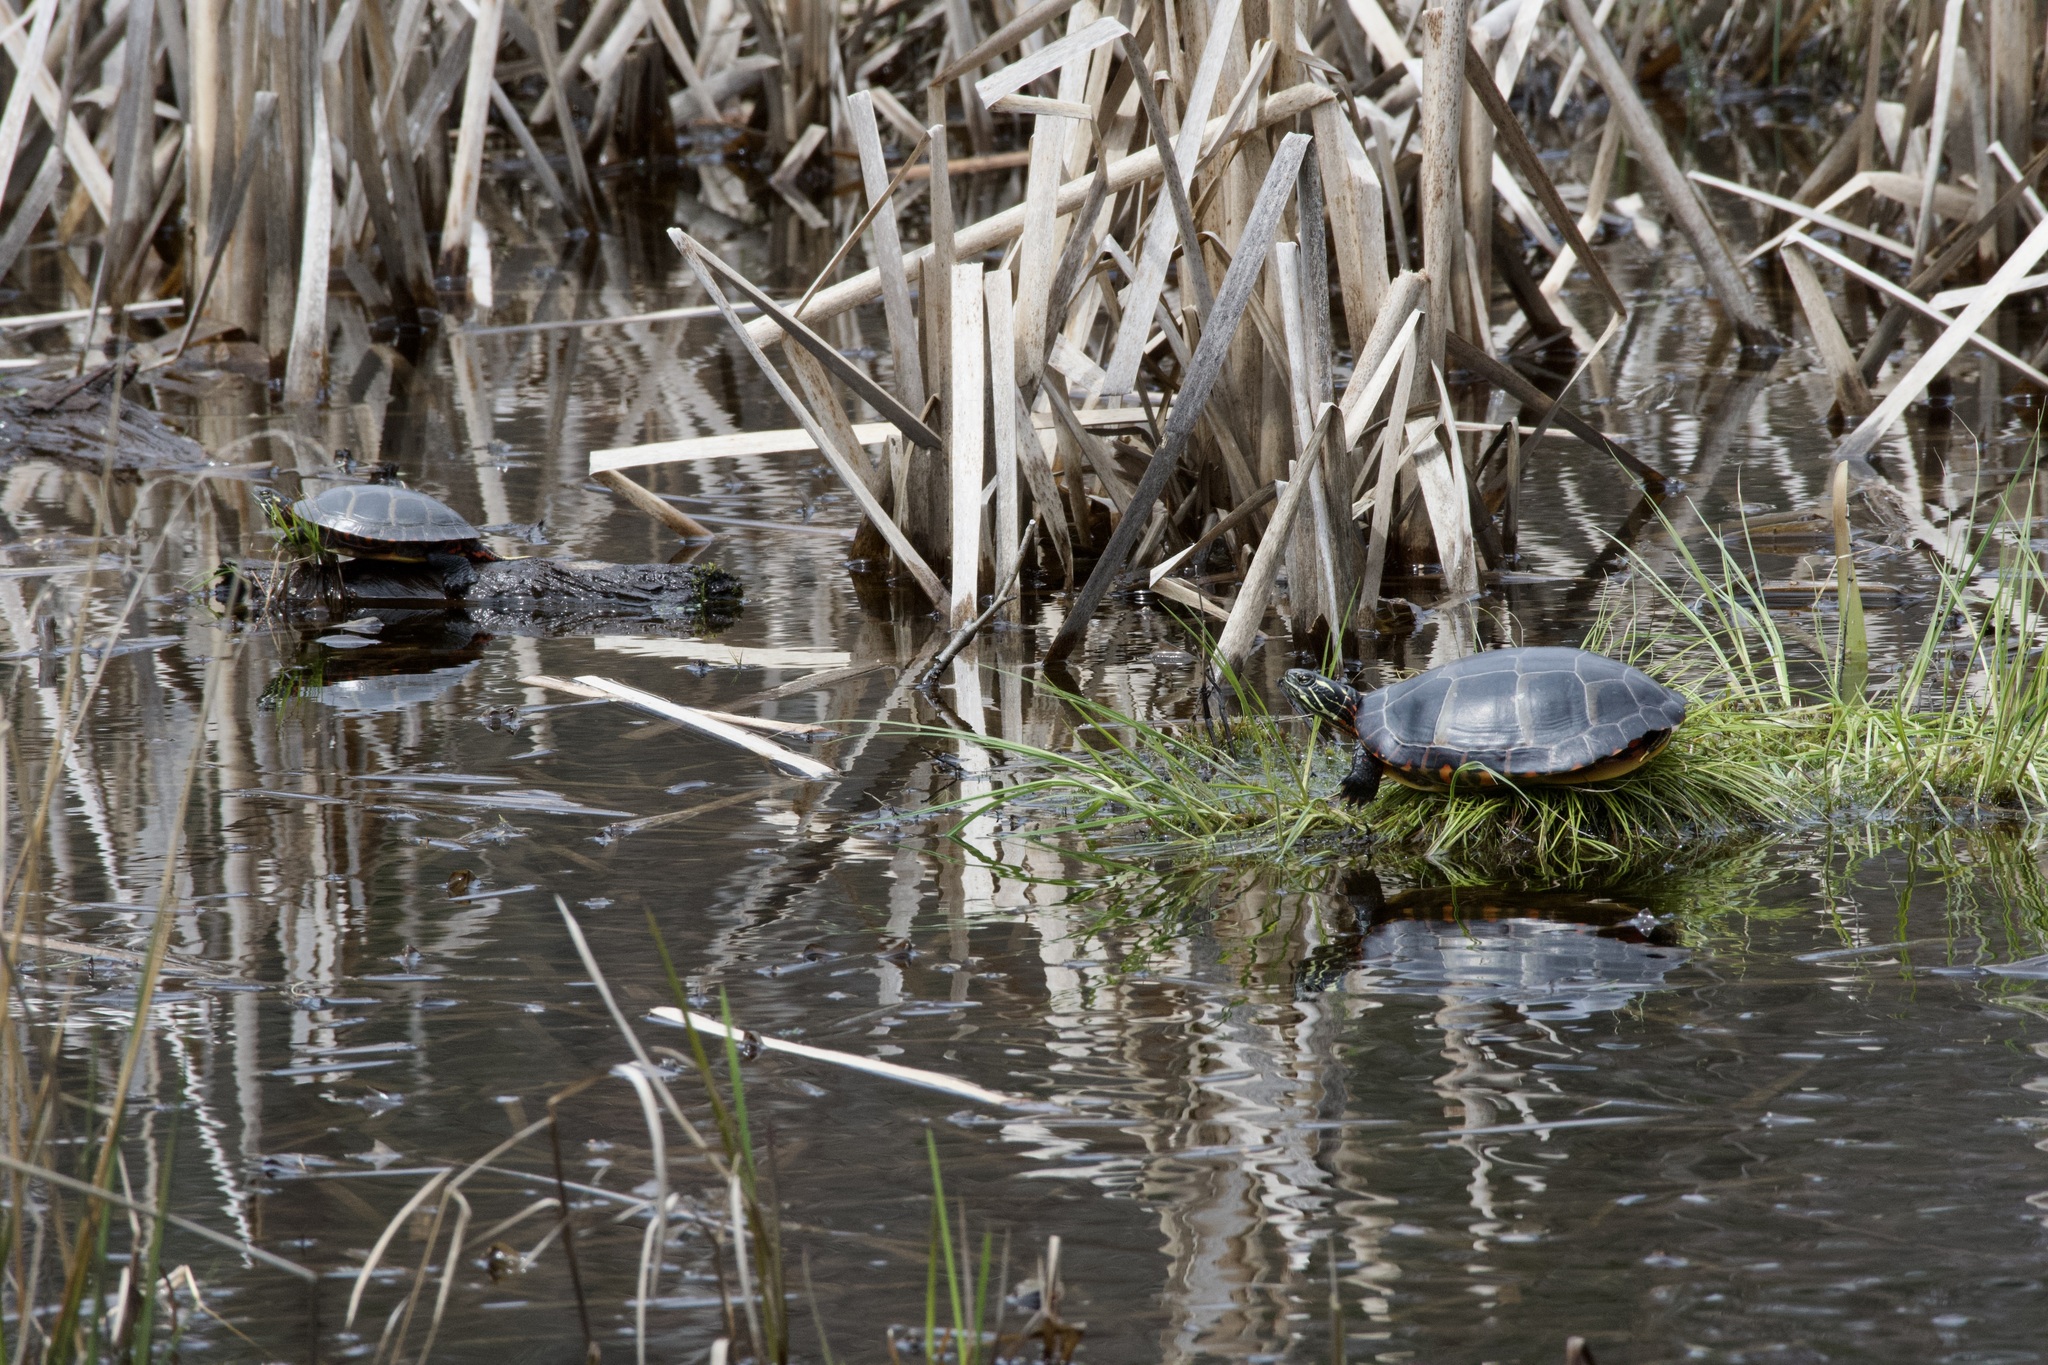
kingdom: Animalia
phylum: Chordata
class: Testudines
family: Emydidae
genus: Chrysemys
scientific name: Chrysemys picta
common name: Painted turtle
